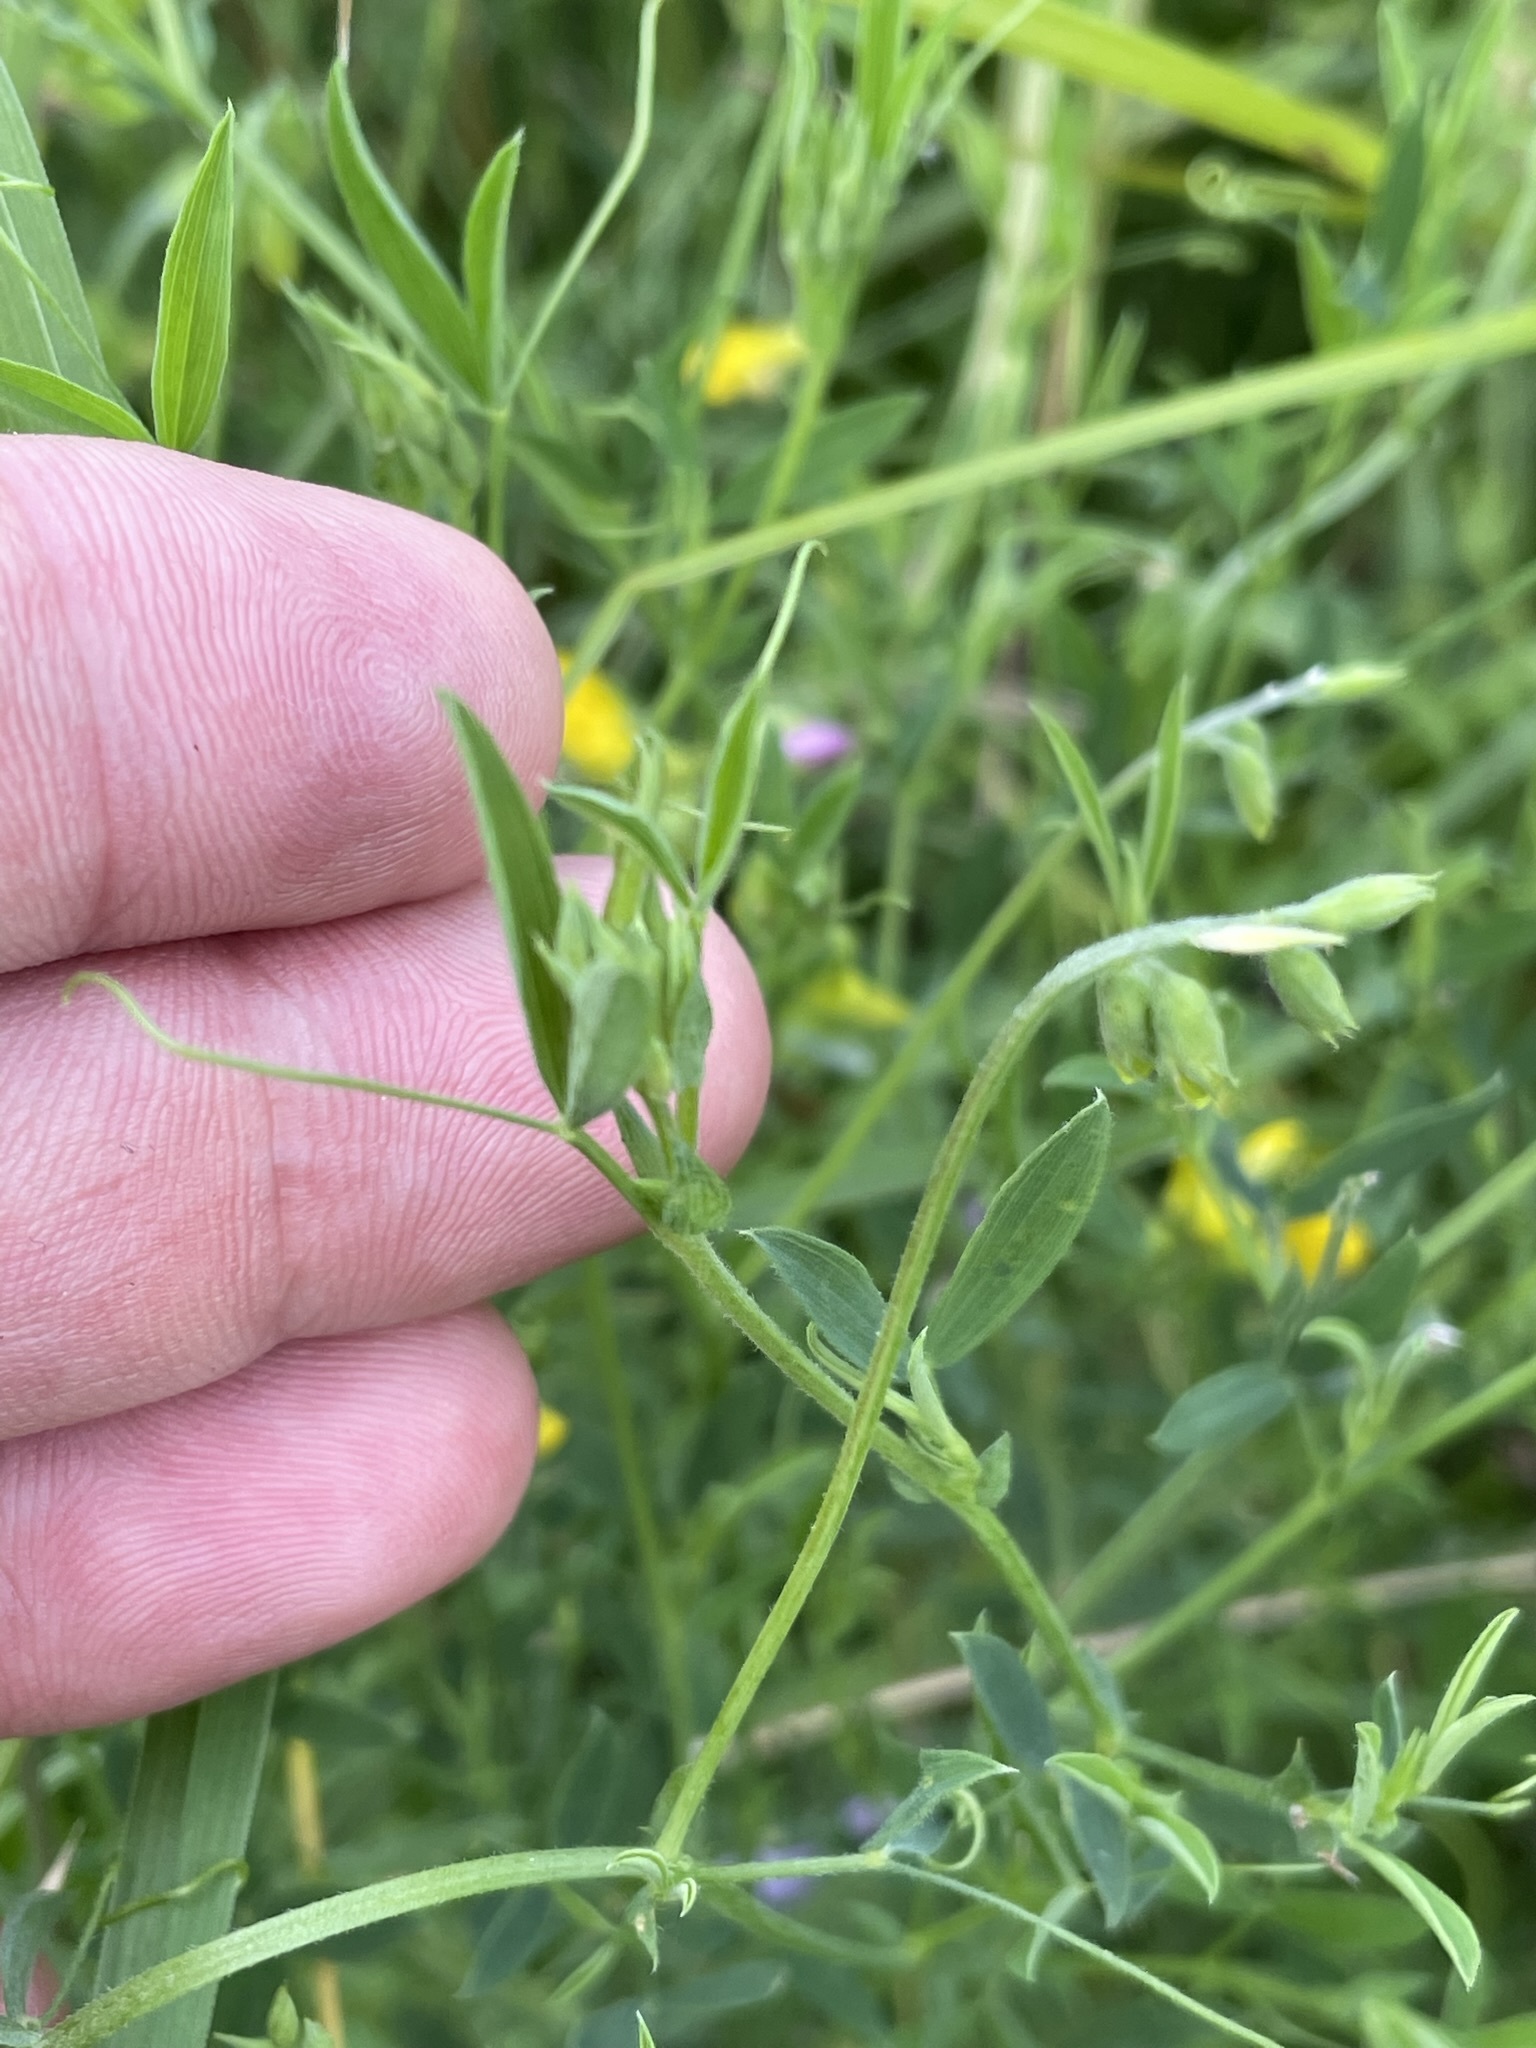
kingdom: Plantae
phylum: Tracheophyta
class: Magnoliopsida
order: Fabales
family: Fabaceae
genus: Lathyrus
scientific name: Lathyrus pratensis
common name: Meadow vetchling
